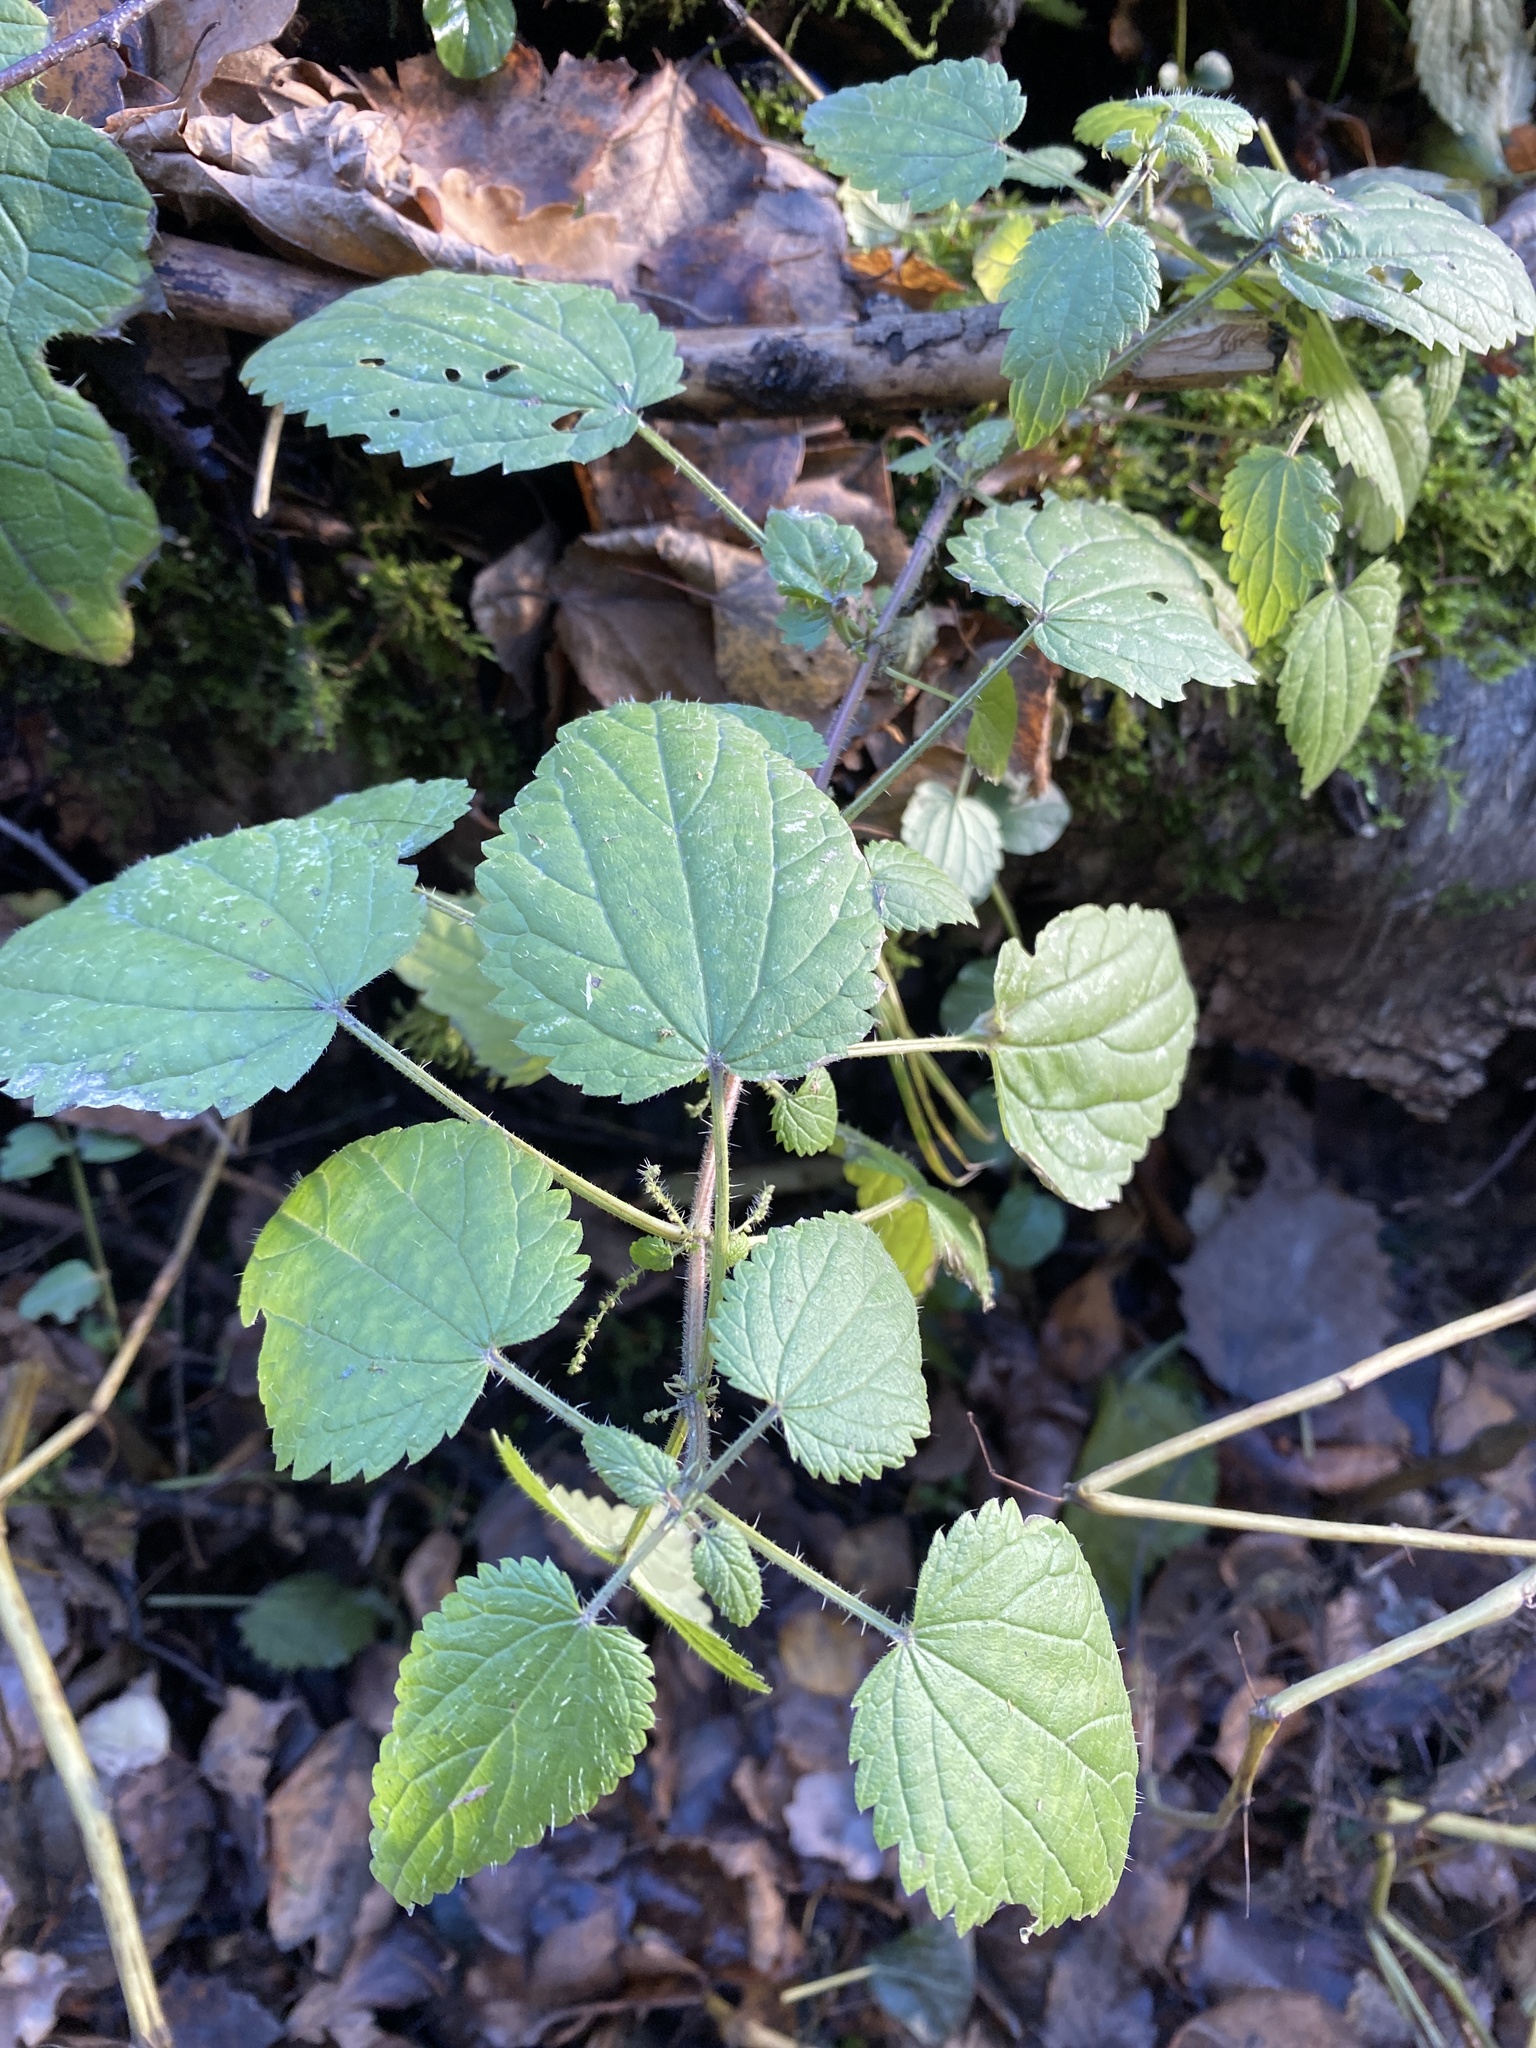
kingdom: Plantae
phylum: Tracheophyta
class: Magnoliopsida
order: Rosales
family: Urticaceae
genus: Urtica
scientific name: Urtica dioica
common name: Common nettle
